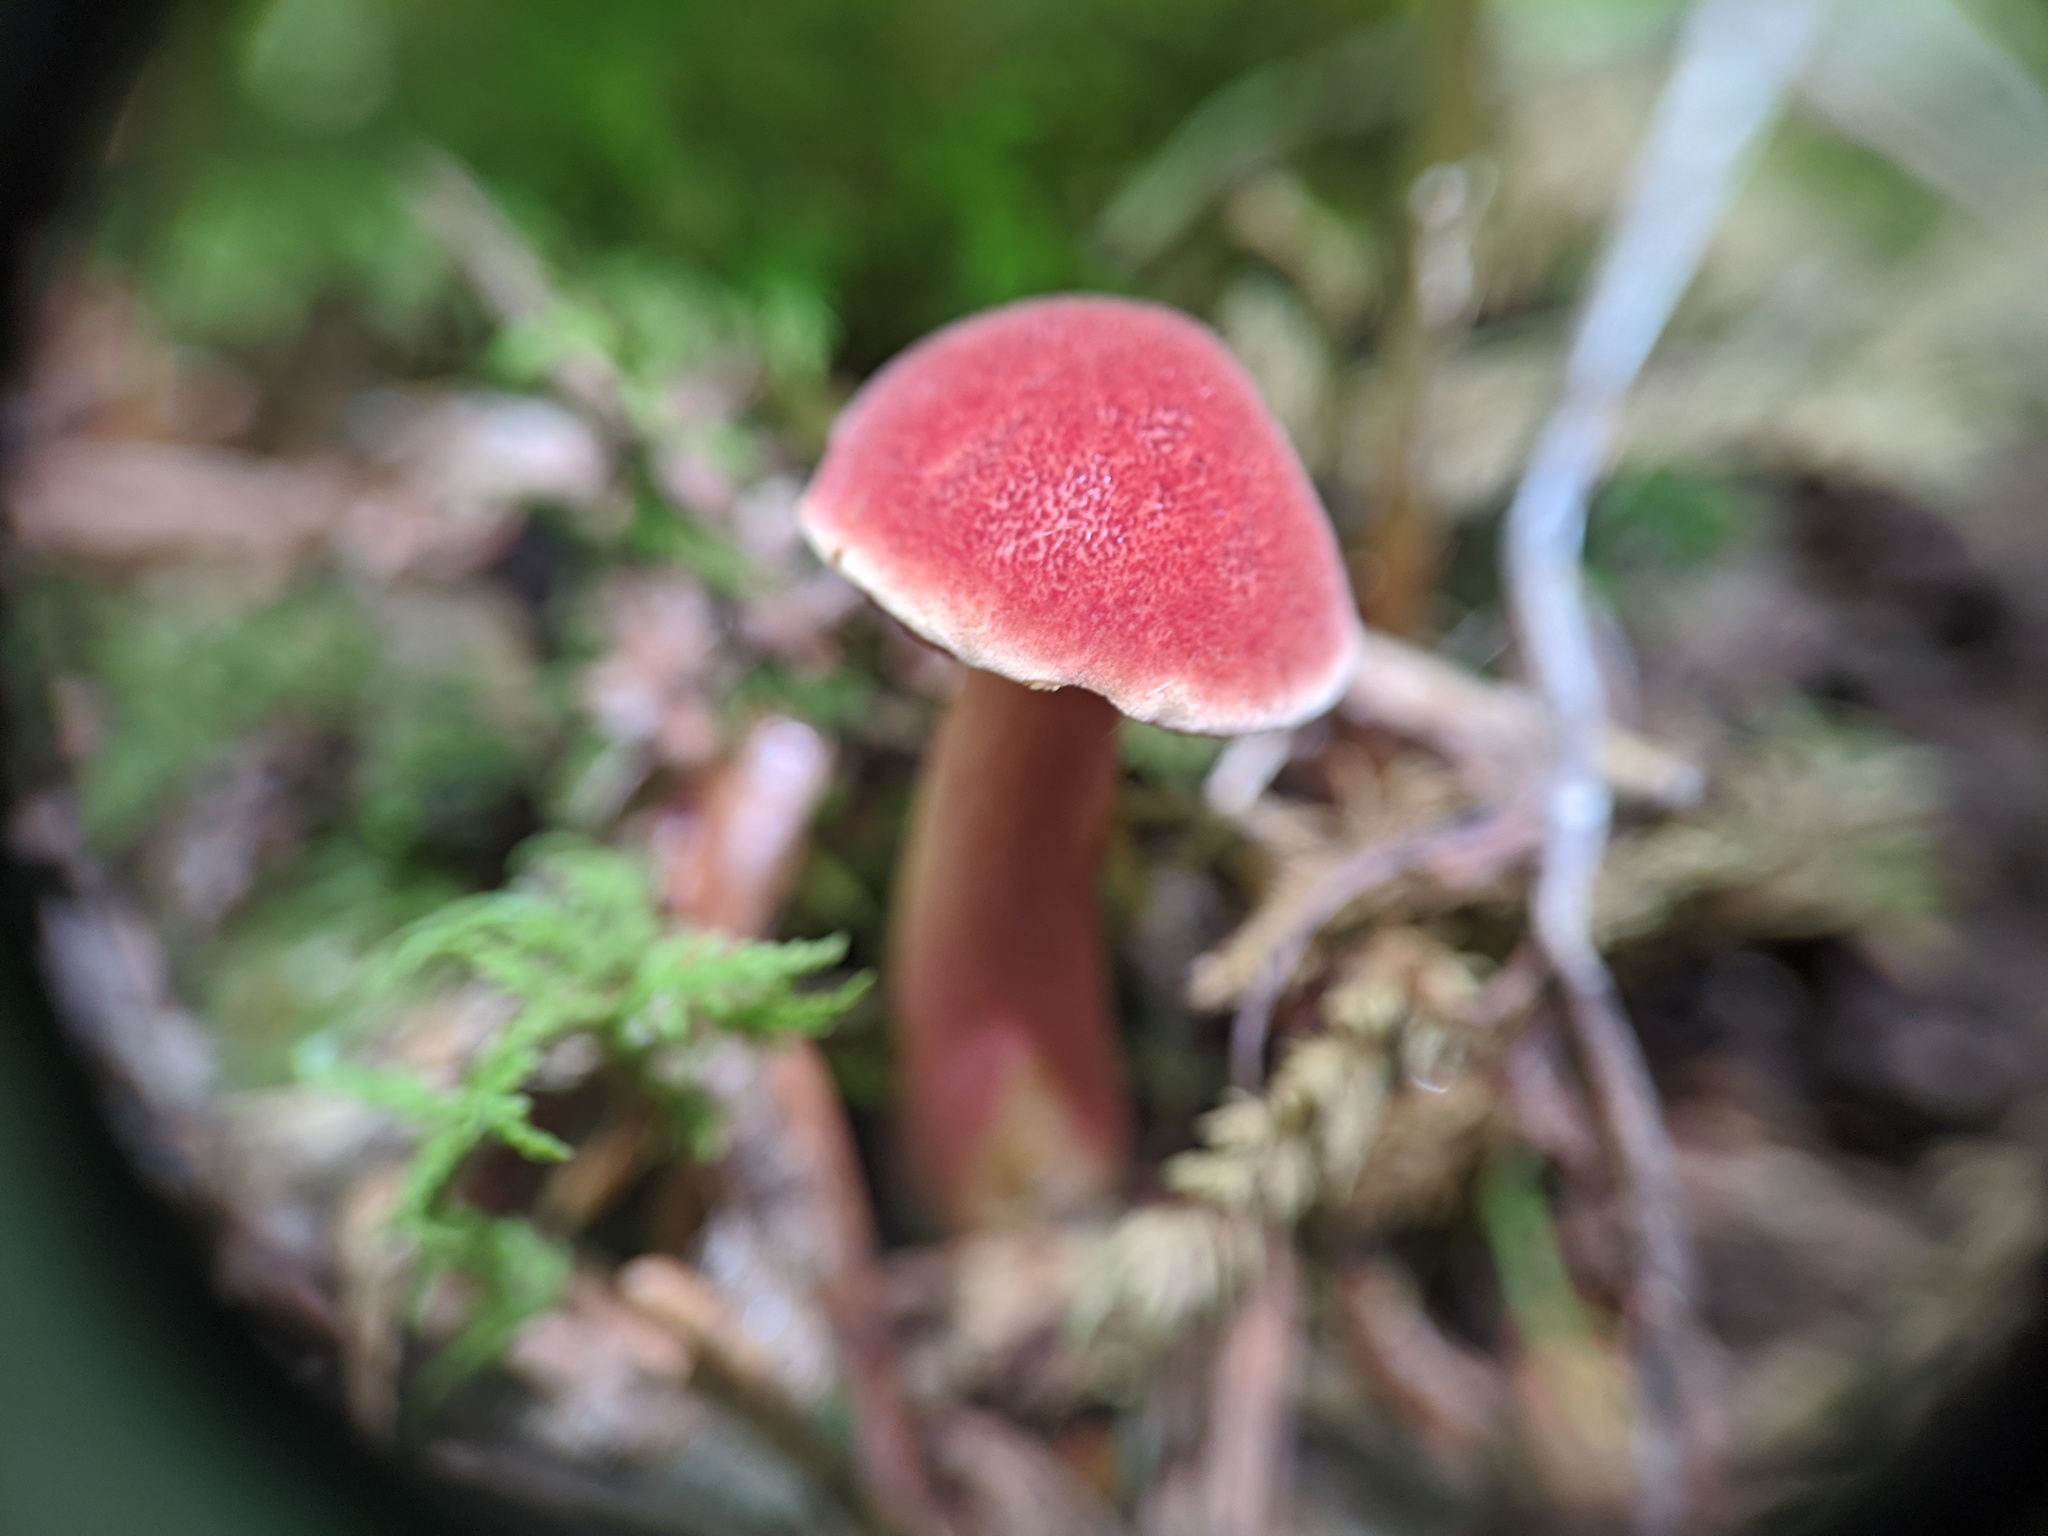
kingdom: Fungi
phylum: Basidiomycota
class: Agaricomycetes
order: Boletales
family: Boletaceae
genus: Chalciporus
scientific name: Chalciporus rubinellus
